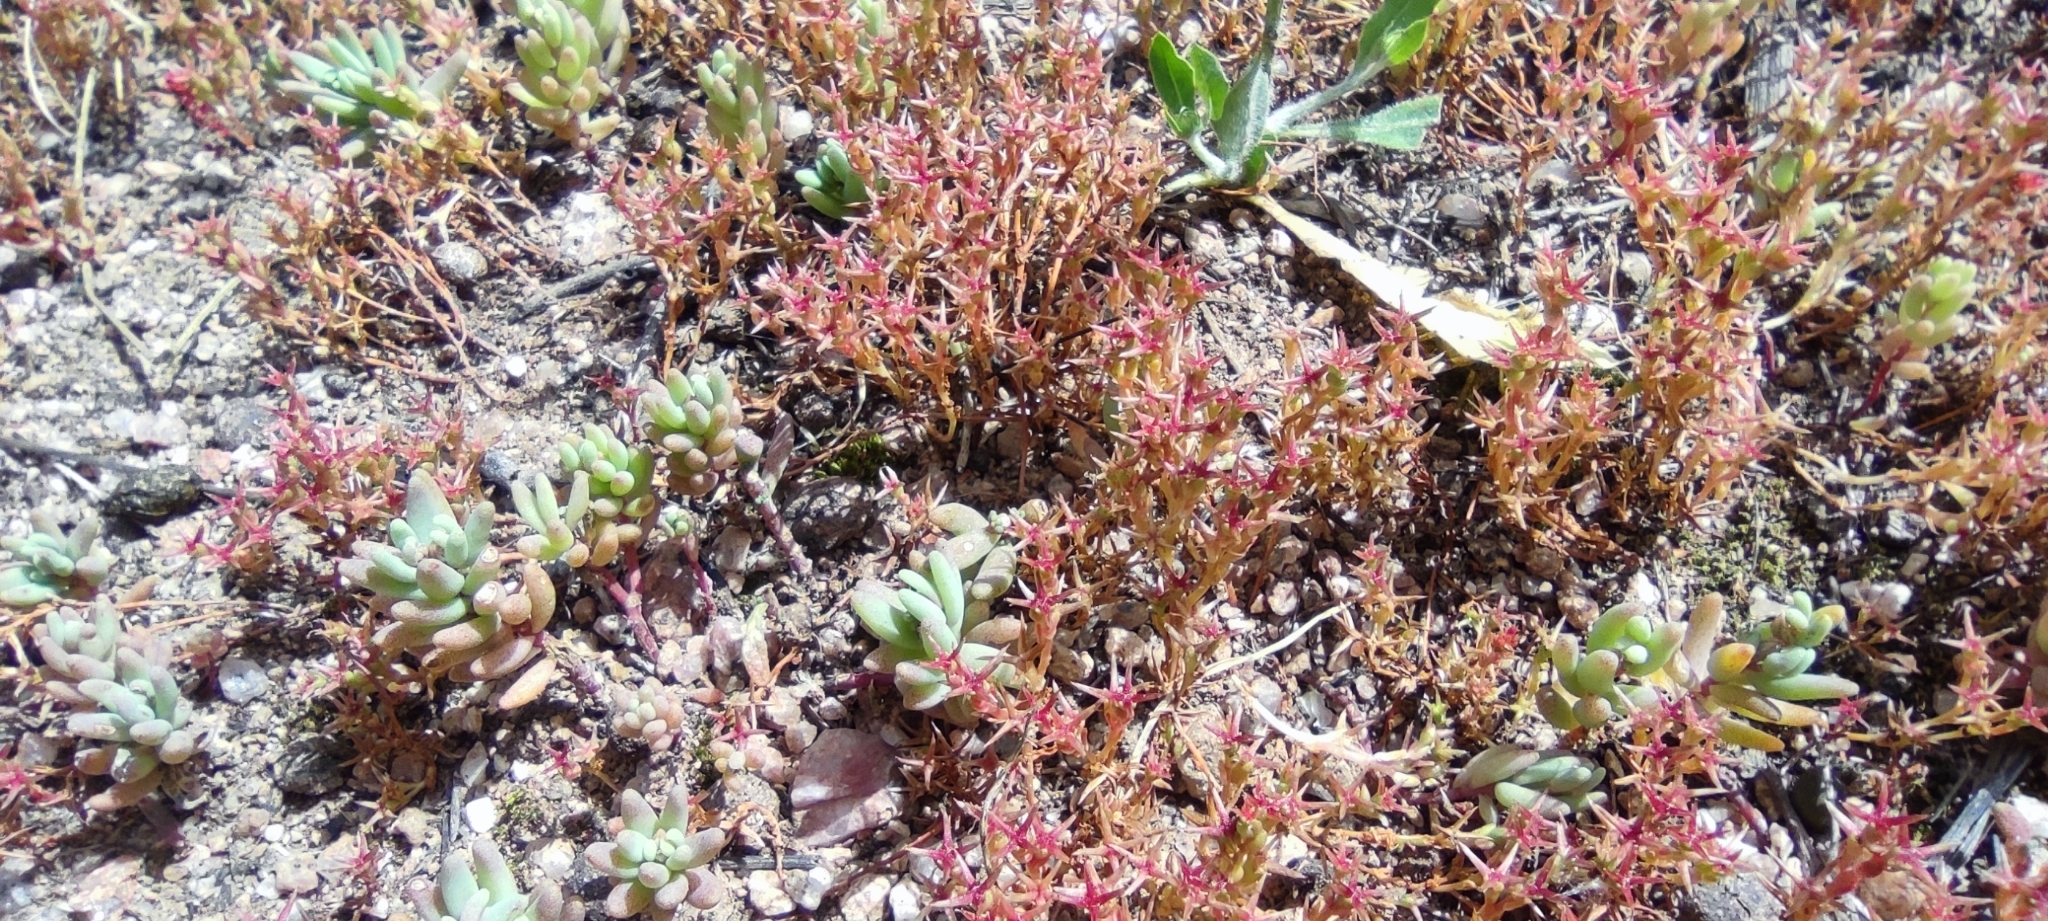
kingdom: Plantae
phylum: Tracheophyta
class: Magnoliopsida
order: Saxifragales
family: Crassulaceae
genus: Sedum
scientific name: Sedum cespitosum
